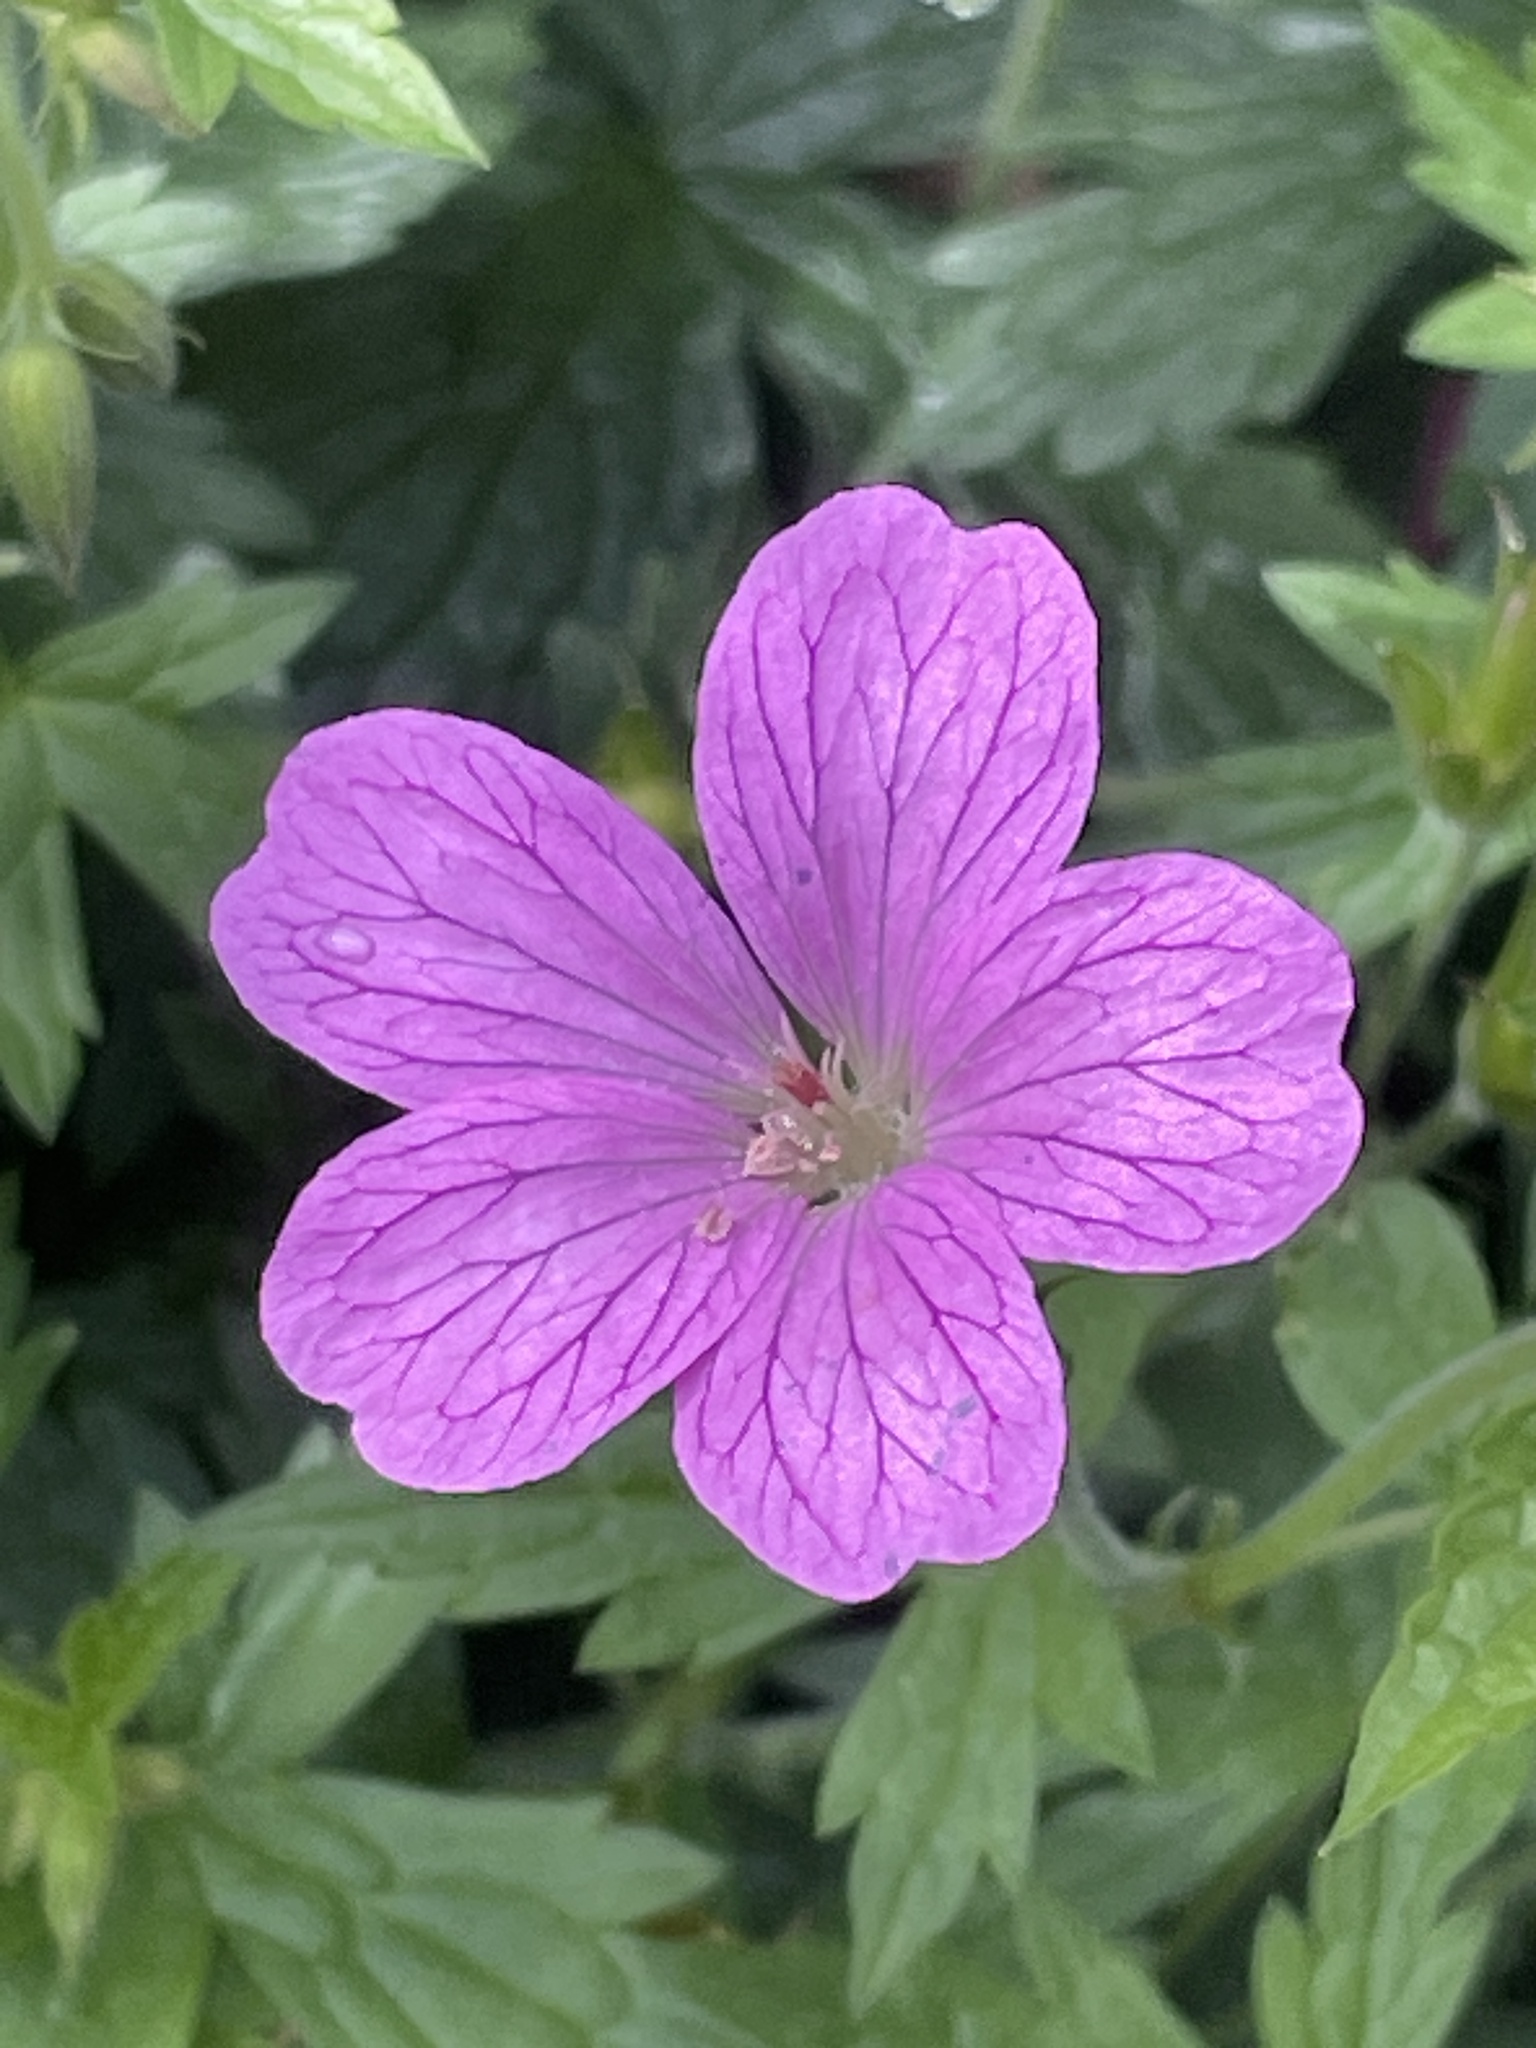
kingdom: Plantae
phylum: Tracheophyta
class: Magnoliopsida
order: Geraniales
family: Geraniaceae
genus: Geranium
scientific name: Geranium oxonianum
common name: Druce's crane's-bill
